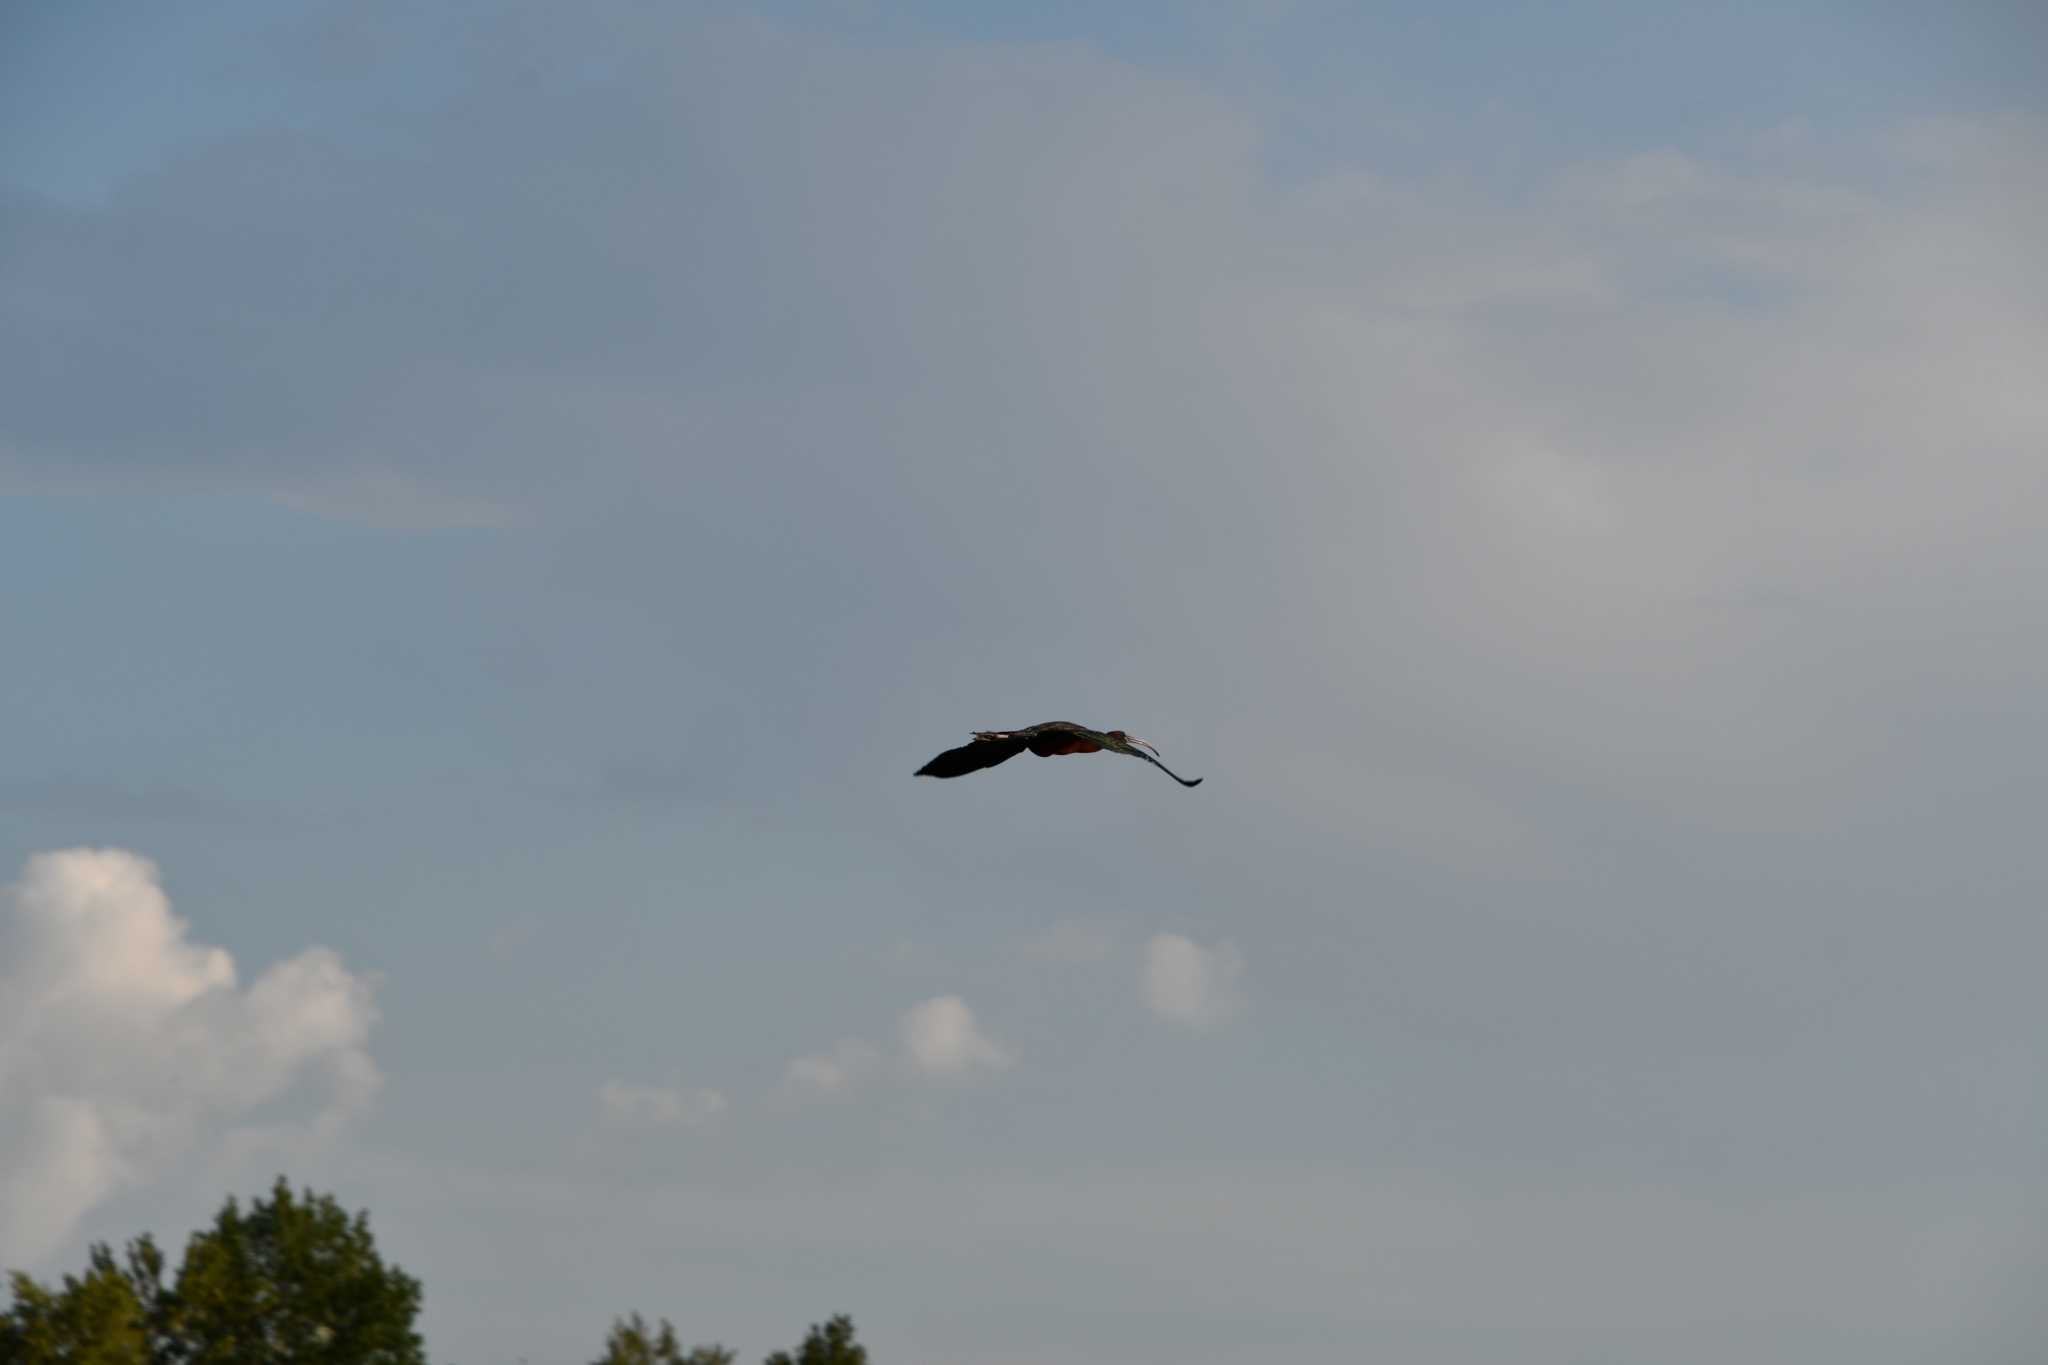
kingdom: Animalia
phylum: Chordata
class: Aves
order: Pelecaniformes
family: Threskiornithidae
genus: Plegadis
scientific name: Plegadis falcinellus
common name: Glossy ibis
